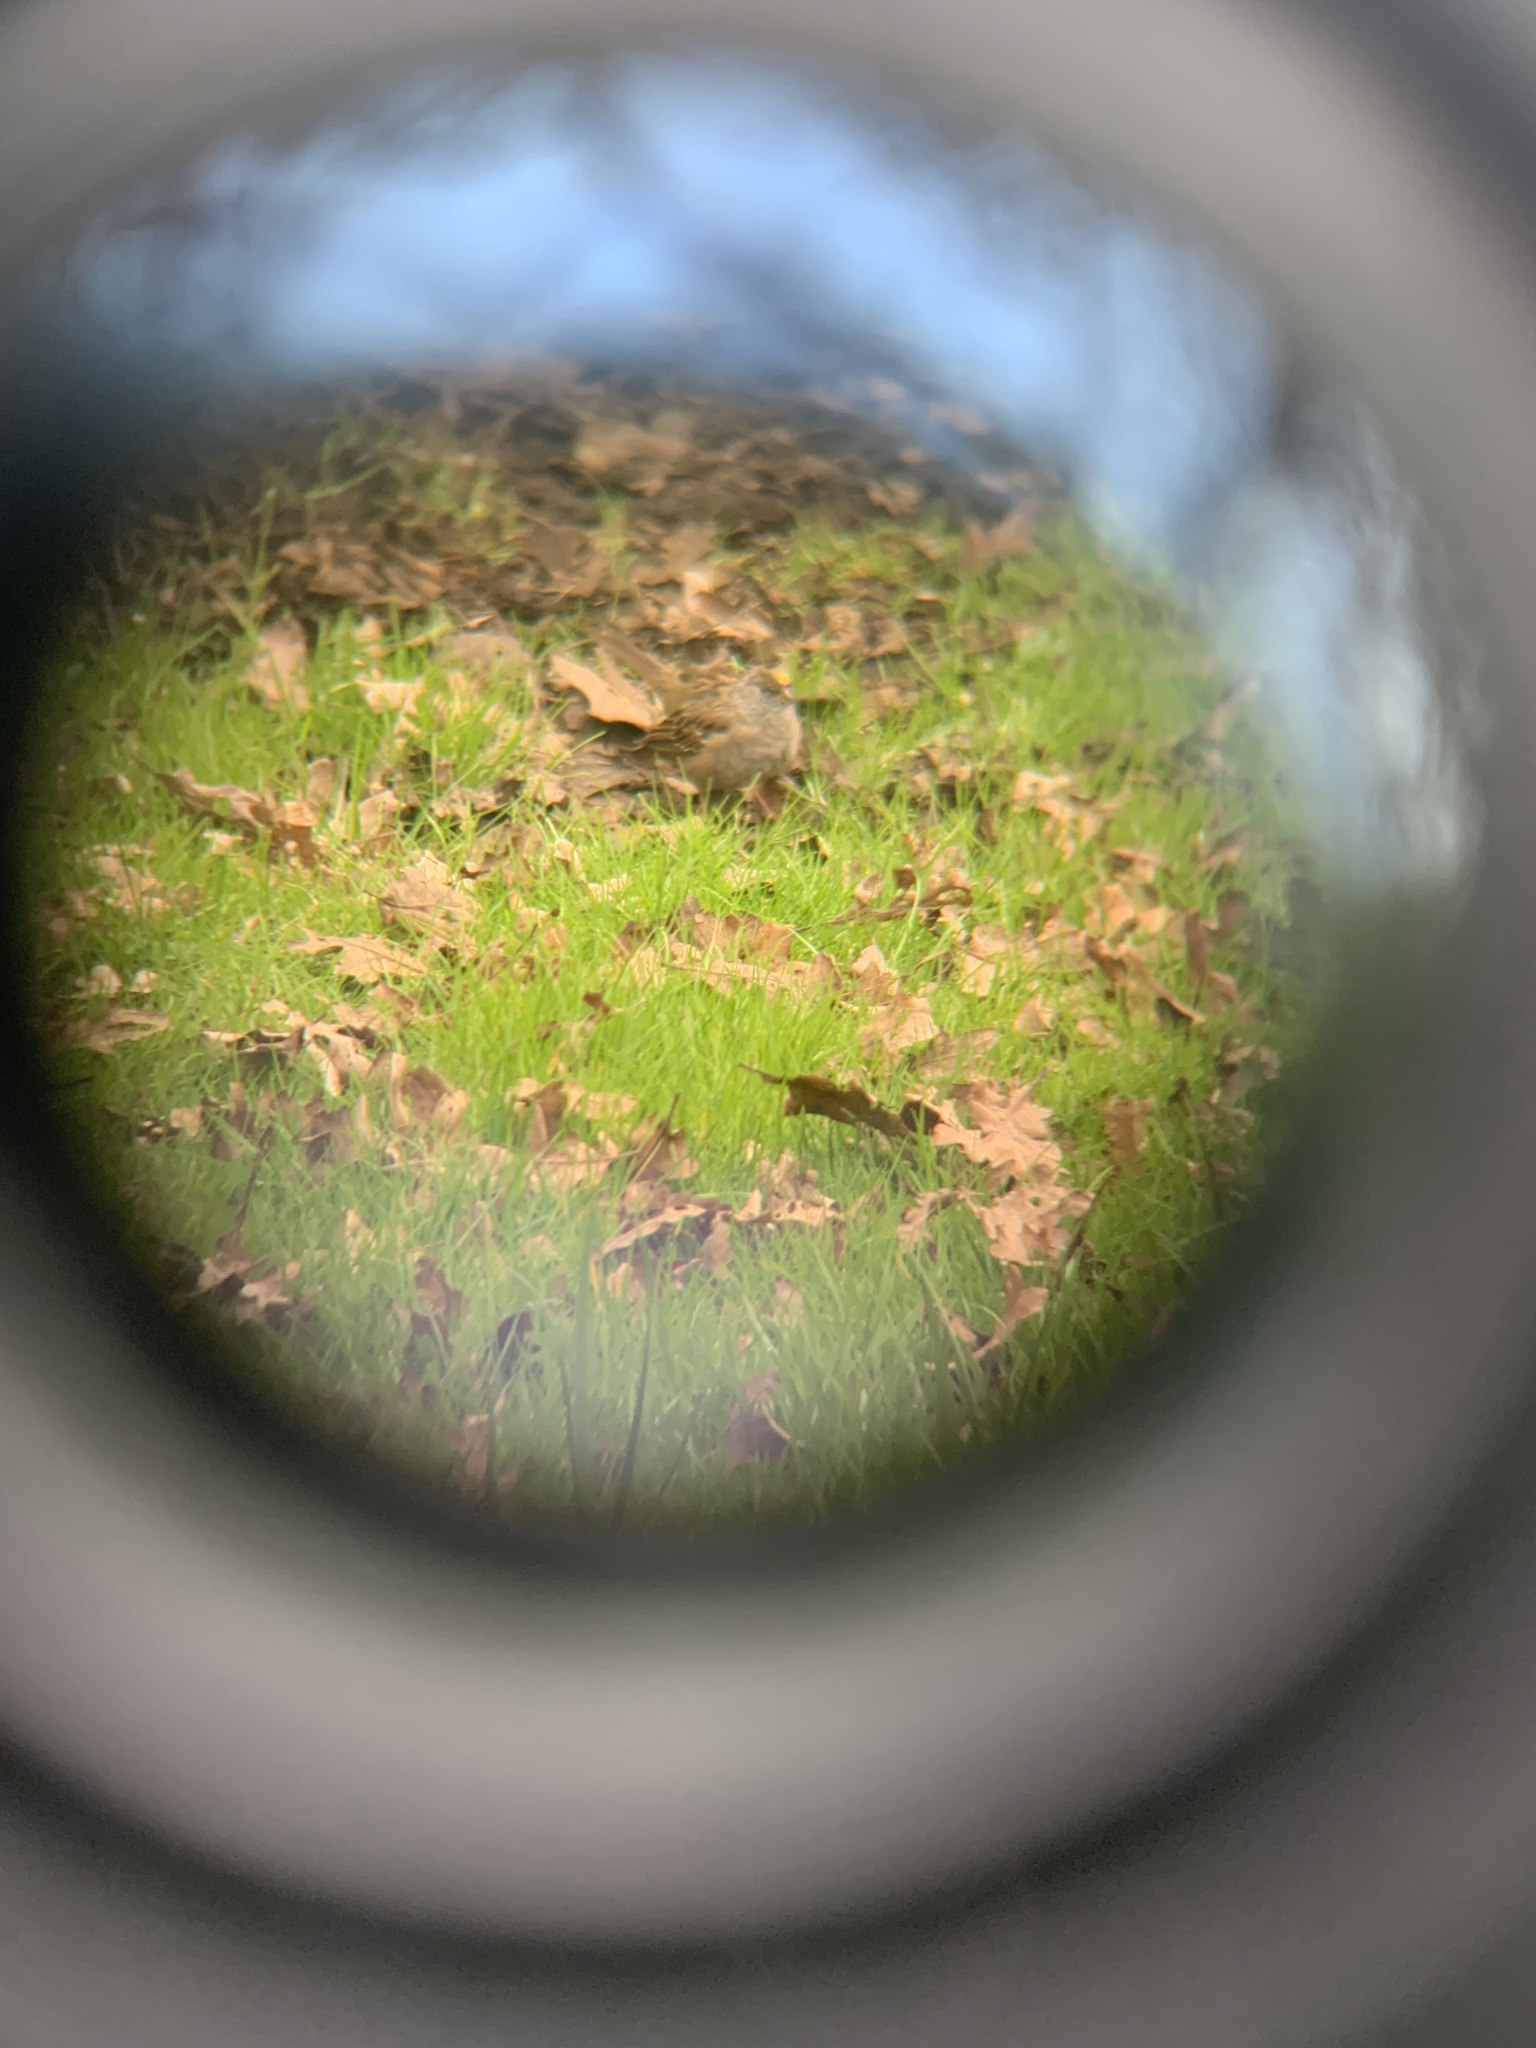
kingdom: Animalia
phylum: Chordata
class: Aves
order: Passeriformes
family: Passerellidae
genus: Zonotrichia
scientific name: Zonotrichia atricapilla
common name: Golden-crowned sparrow
